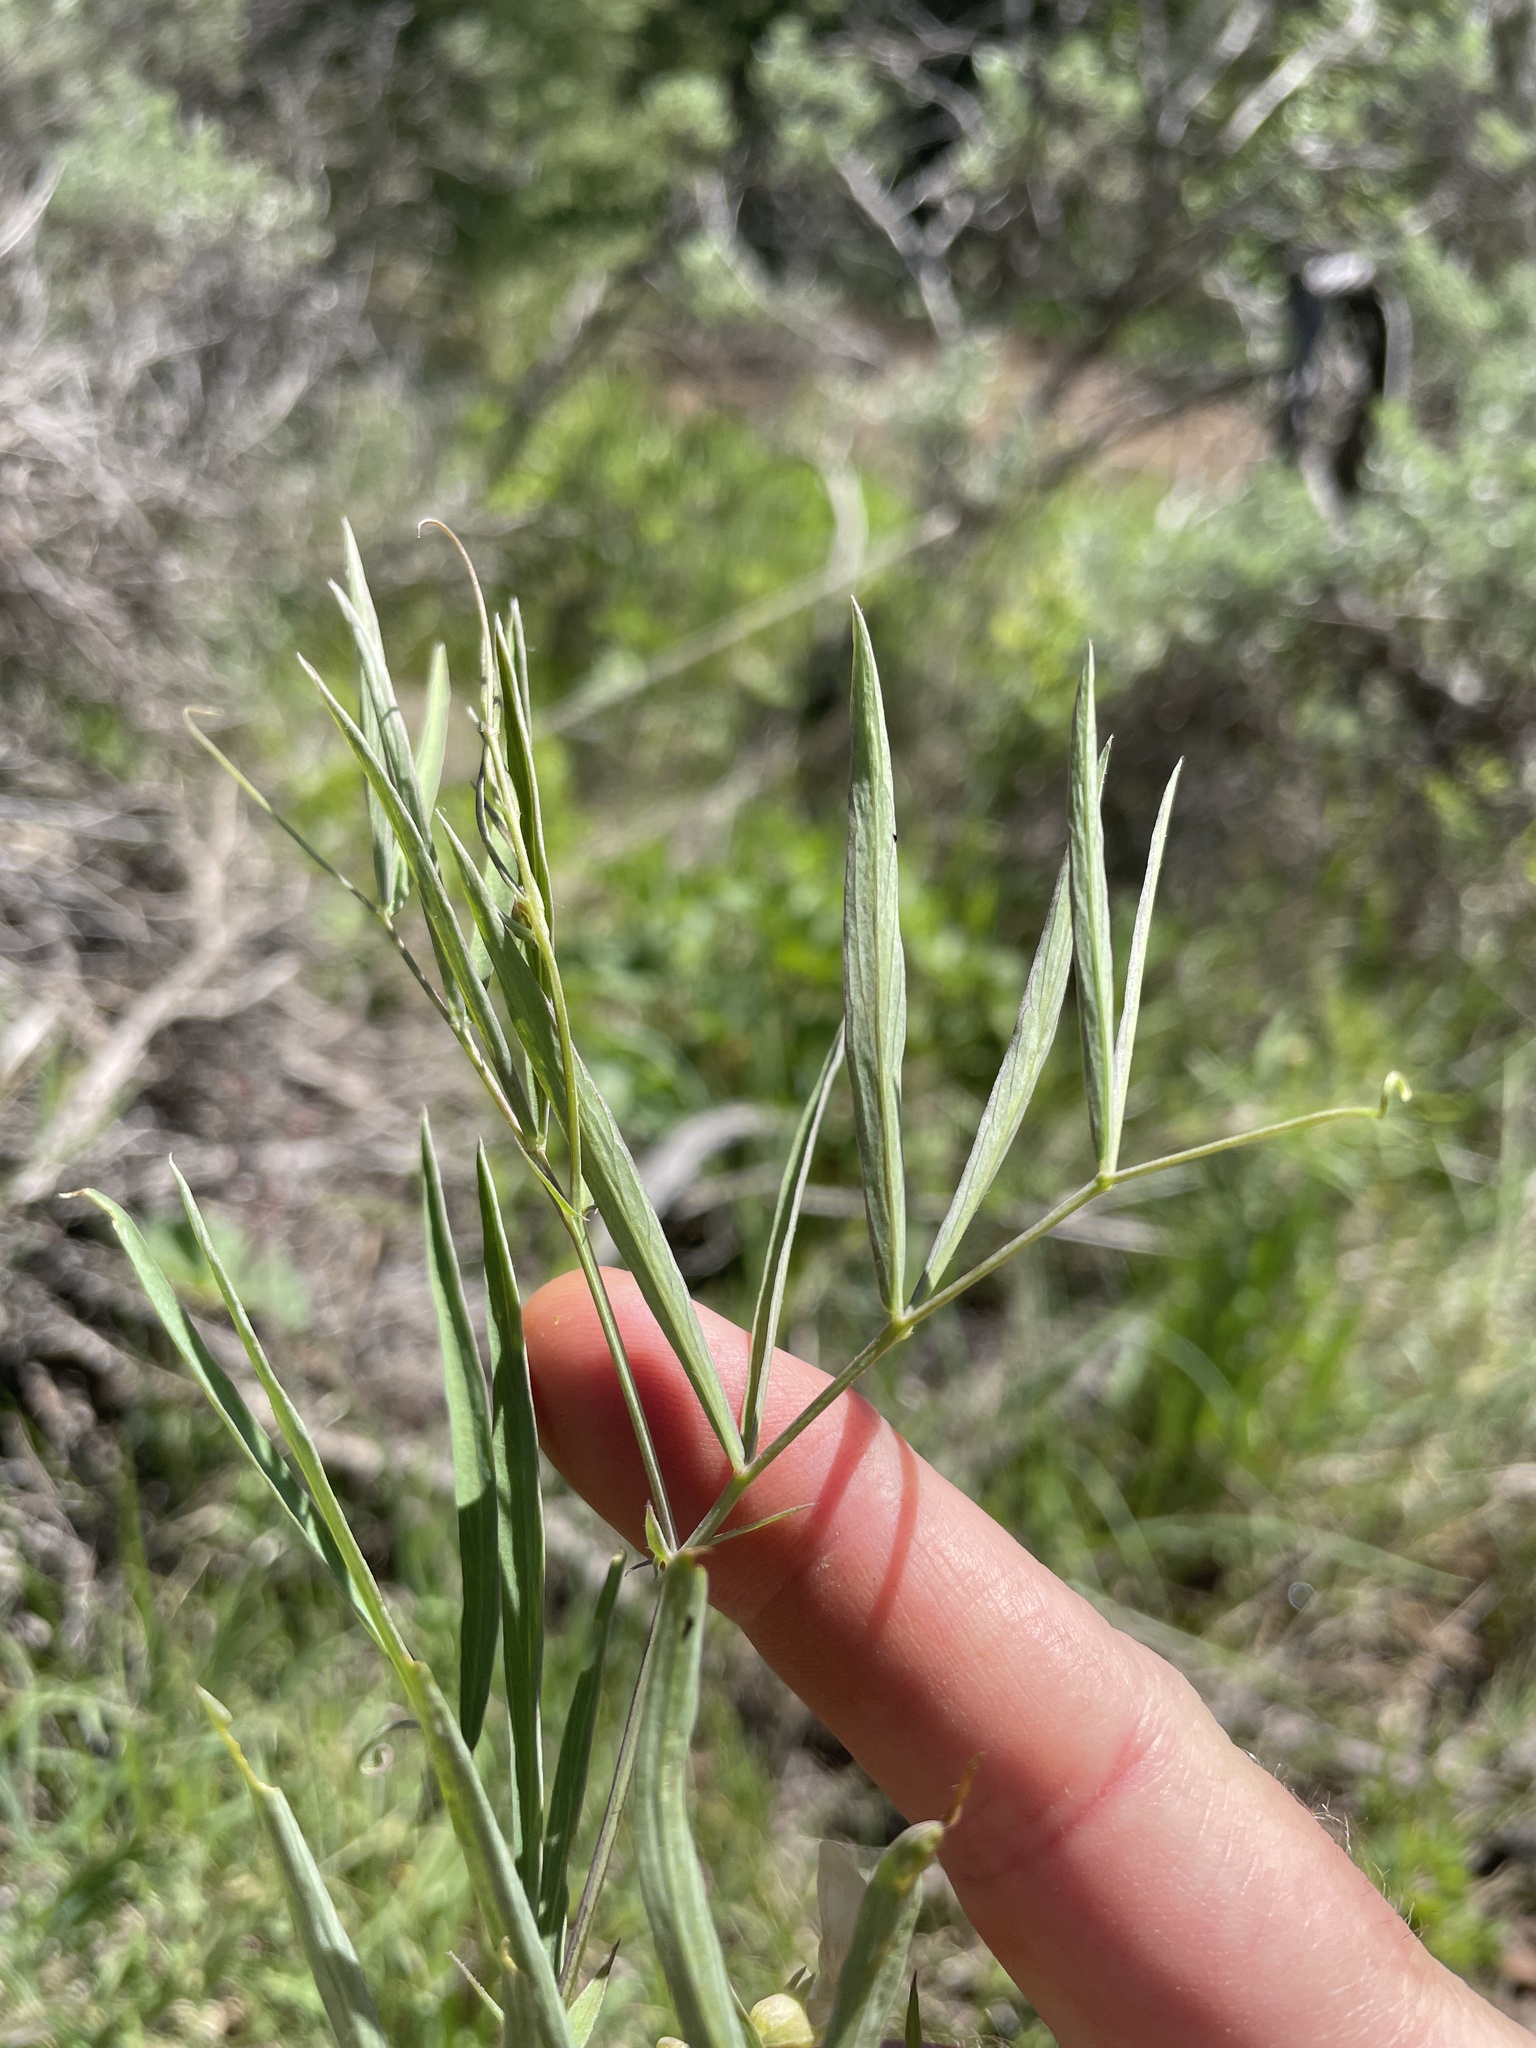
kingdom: Plantae
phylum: Tracheophyta
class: Magnoliopsida
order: Fabales
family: Fabaceae
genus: Lathyrus
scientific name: Lathyrus lanszwertii
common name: Lanszwert's vetchling
